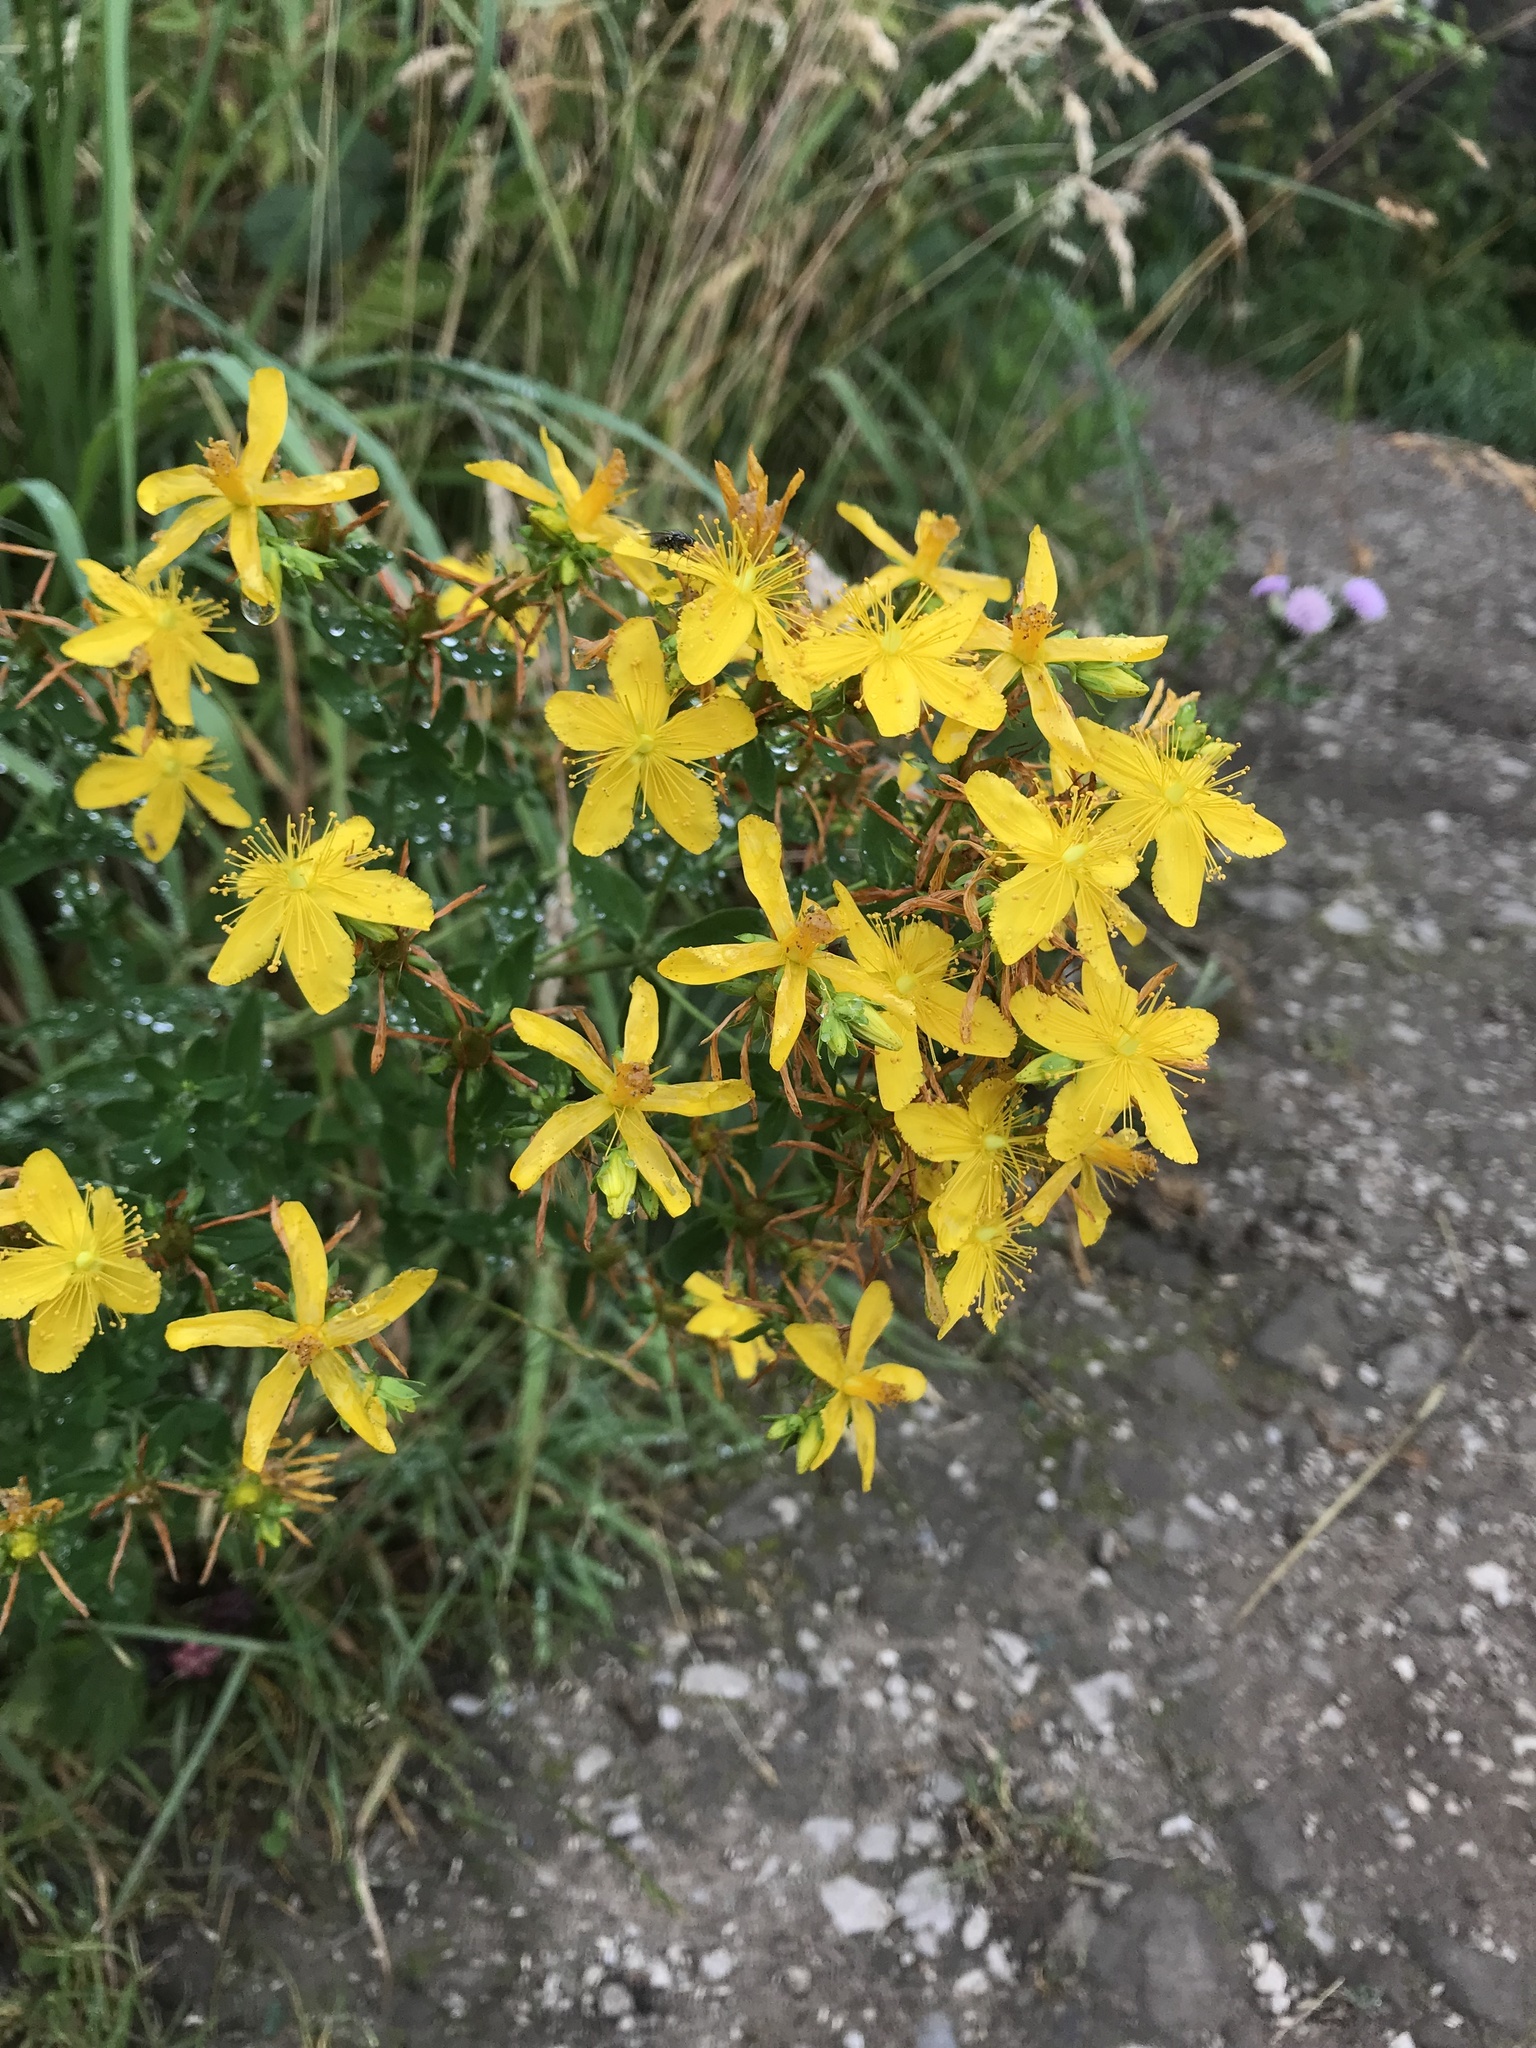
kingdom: Plantae
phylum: Tracheophyta
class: Magnoliopsida
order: Malpighiales
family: Hypericaceae
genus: Hypericum
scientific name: Hypericum perforatum
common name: Common st. johnswort
